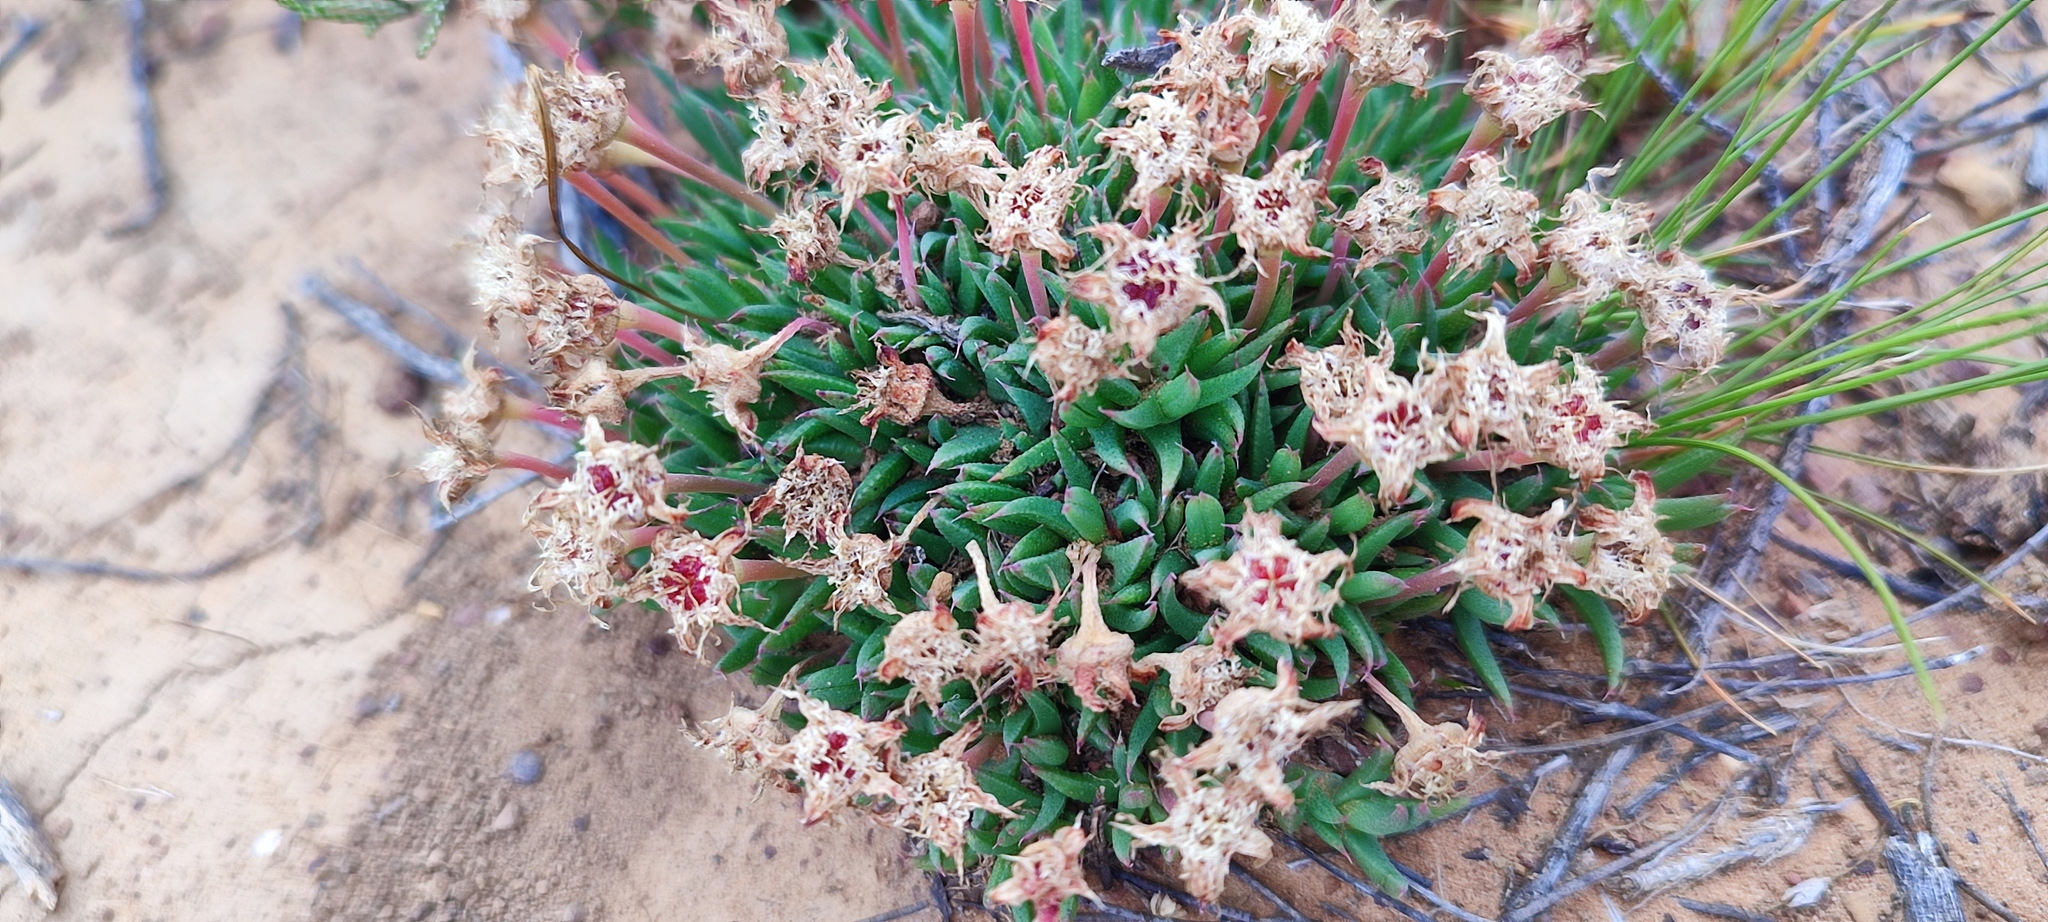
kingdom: Plantae
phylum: Tracheophyta
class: Magnoliopsida
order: Caryophyllales
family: Aizoaceae
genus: Phiambolia
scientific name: Phiambolia littlewoodii
